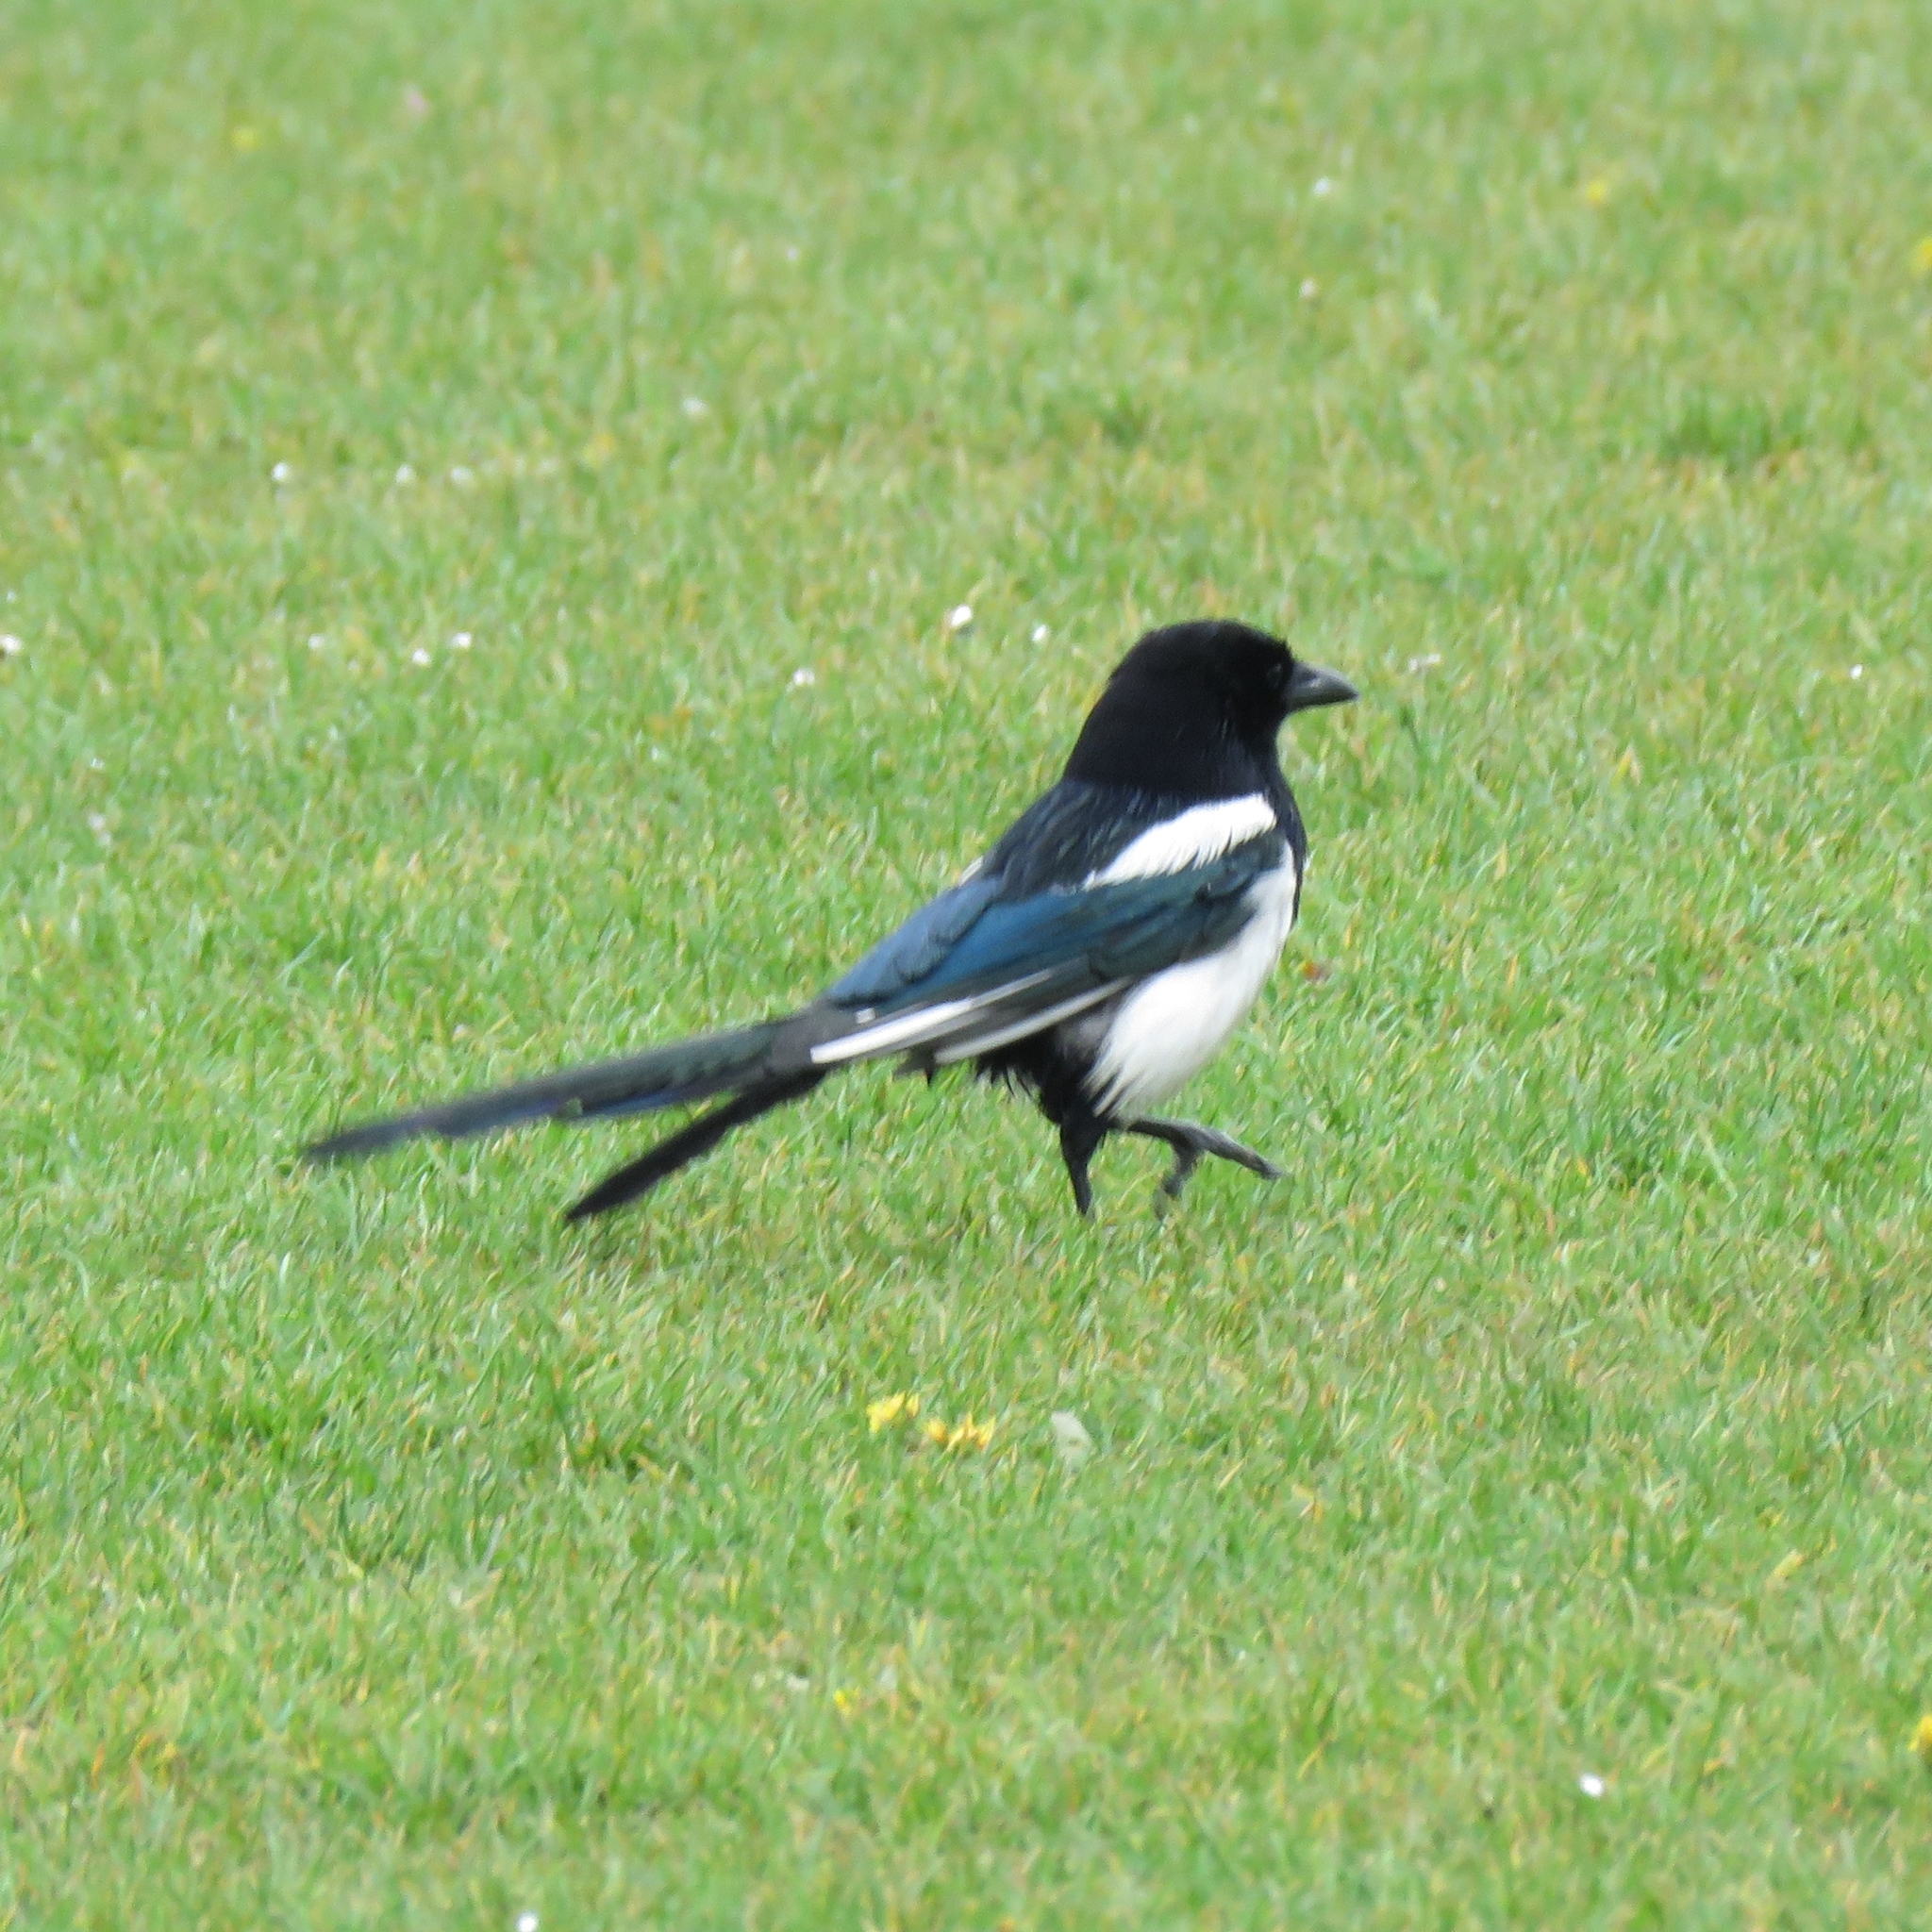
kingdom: Animalia
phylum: Chordata
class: Aves
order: Passeriformes
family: Corvidae
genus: Pica
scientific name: Pica pica
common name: Eurasian magpie
